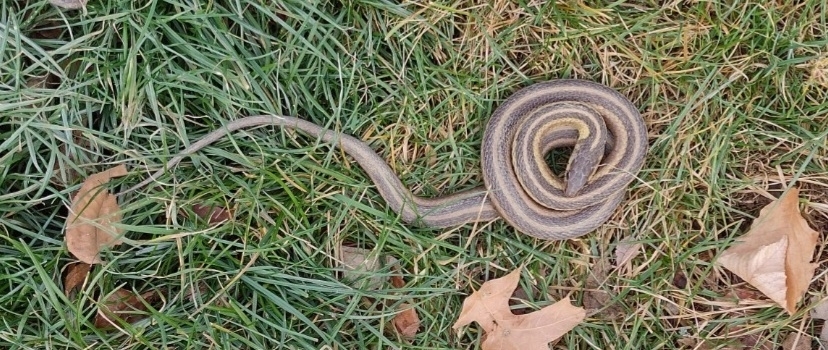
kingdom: Animalia
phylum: Chordata
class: Squamata
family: Colubridae
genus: Thamnophis
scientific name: Thamnophis sirtalis
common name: Common garter snake
